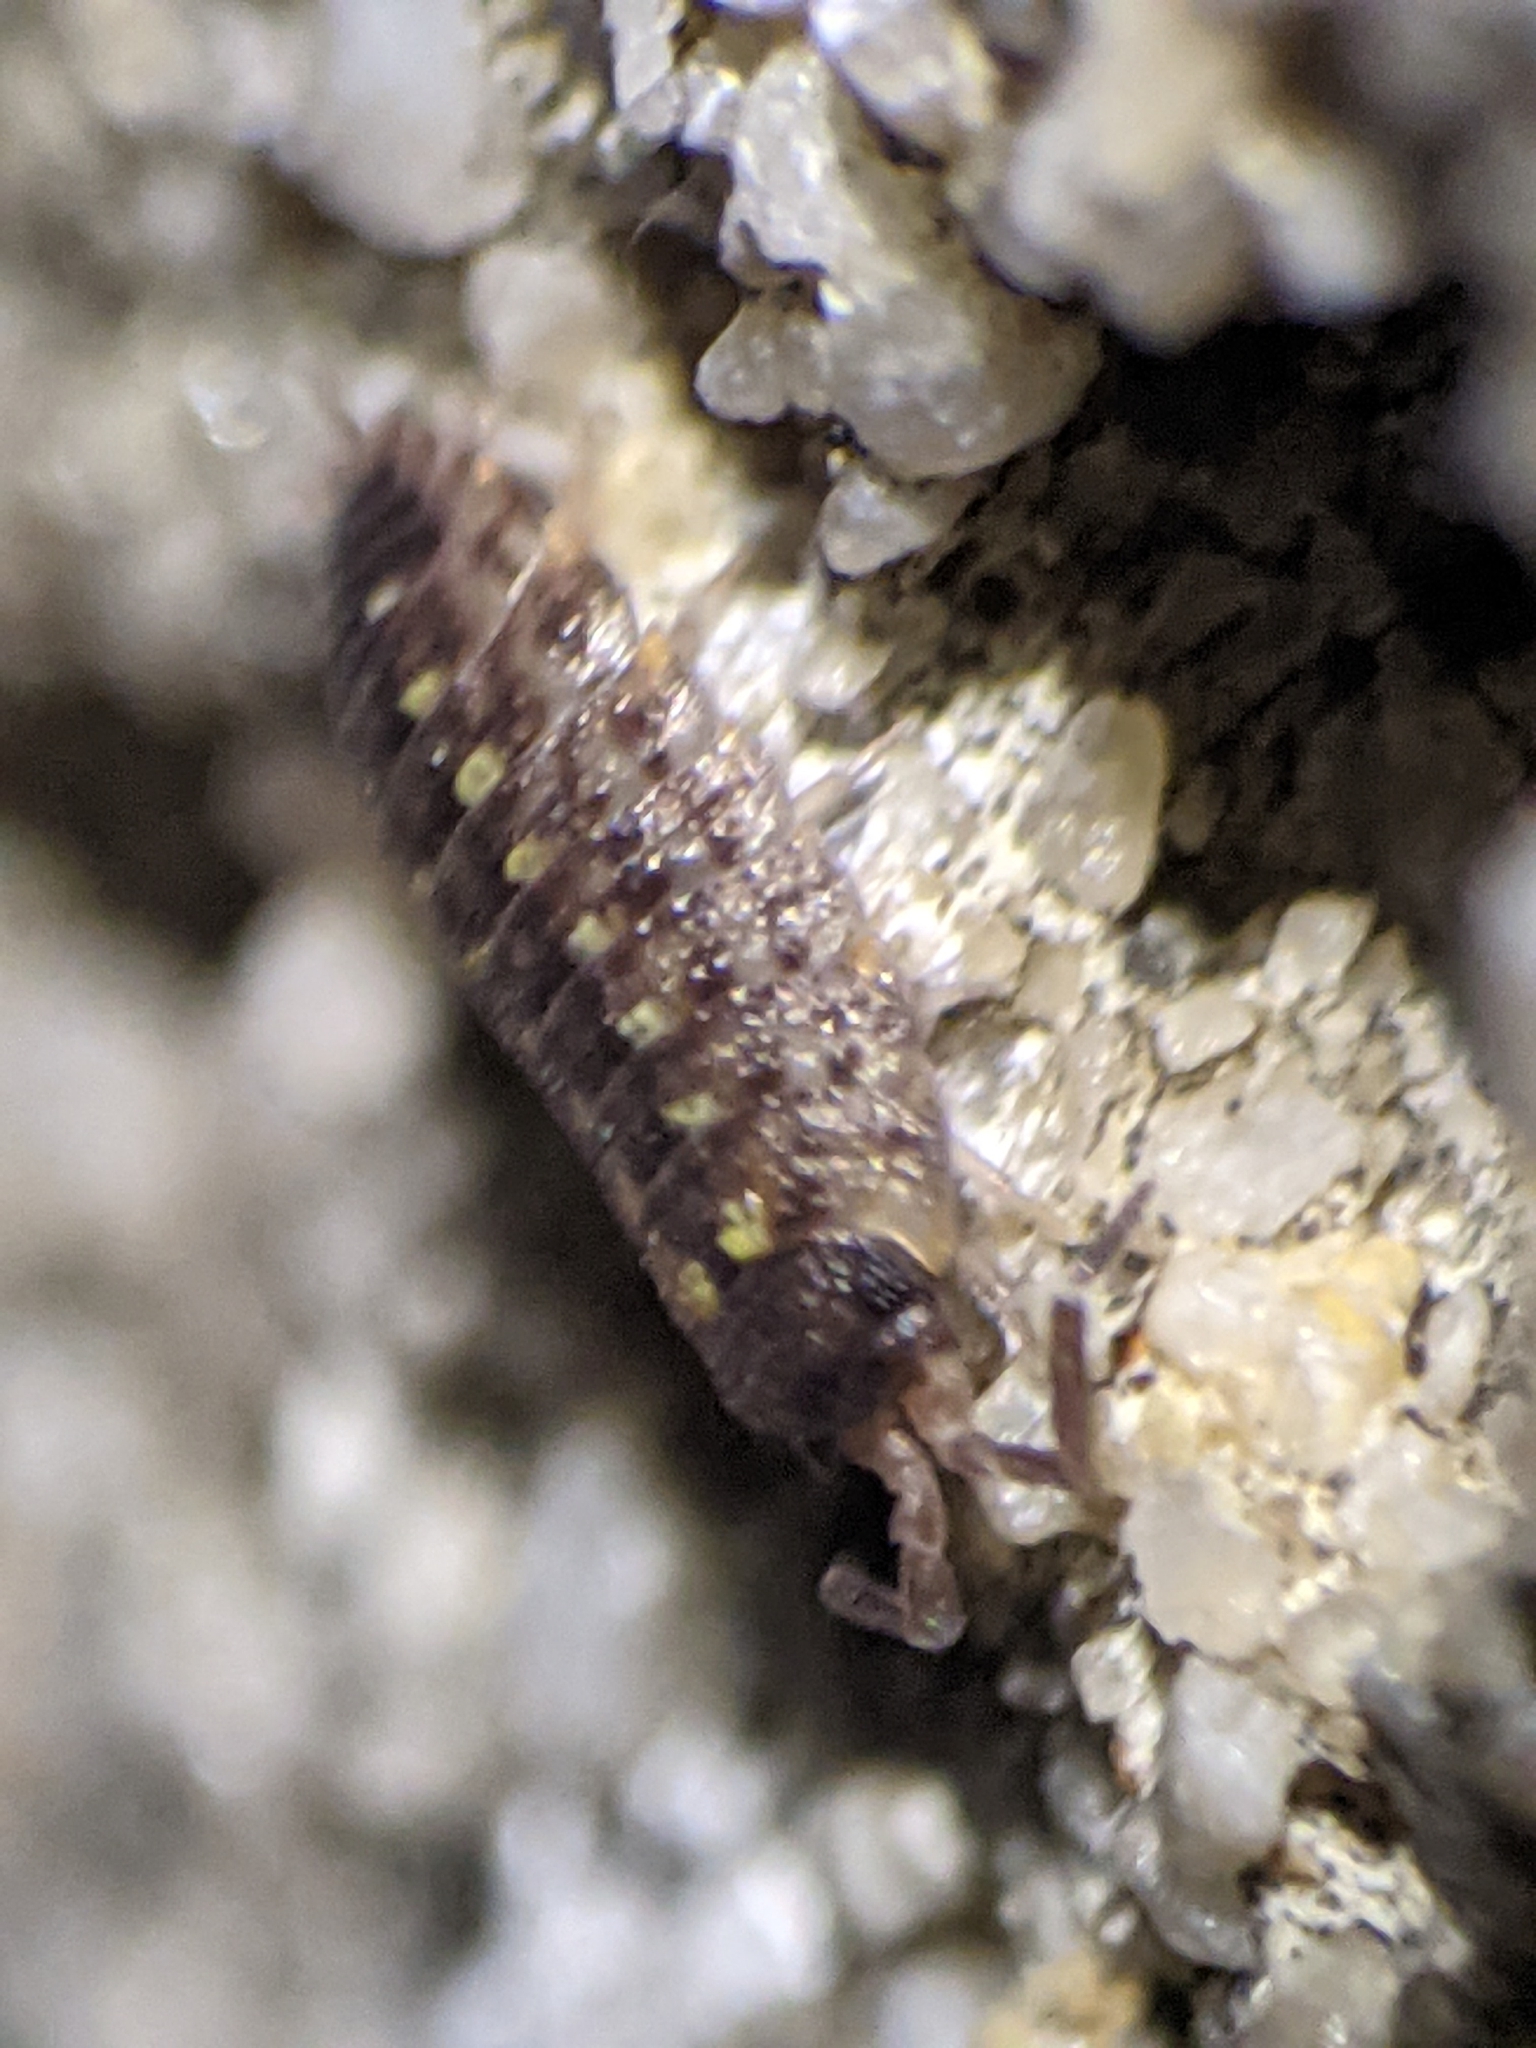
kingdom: Animalia
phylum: Arthropoda
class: Malacostraca
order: Isopoda
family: Porcellionidae
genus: Porcellio
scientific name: Porcellio spinicornis
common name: Painted woodlouse
